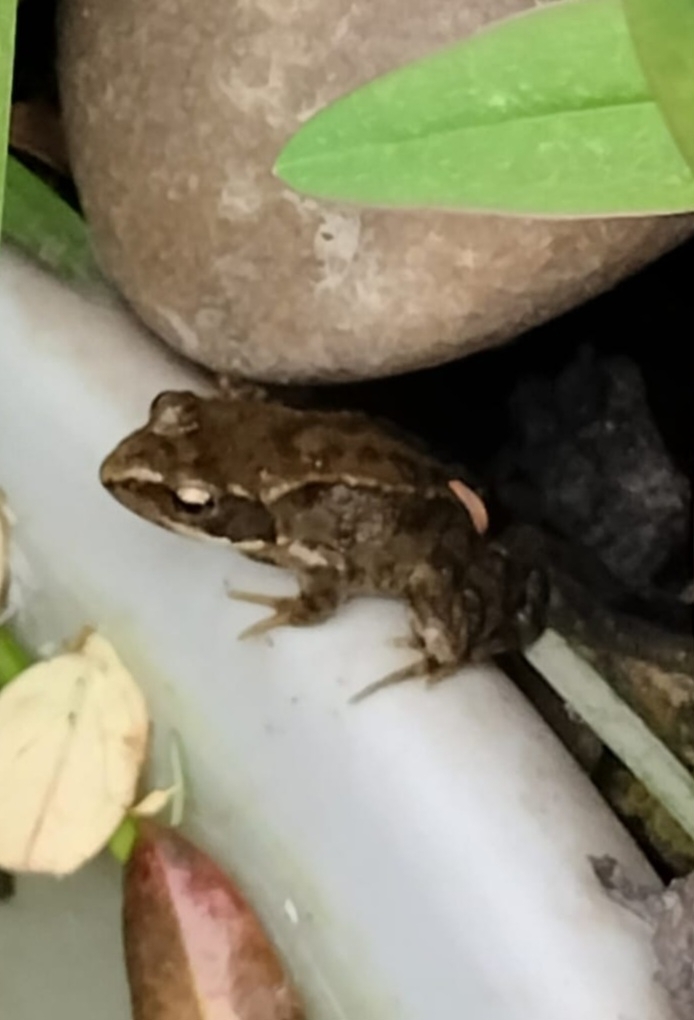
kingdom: Animalia
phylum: Chordata
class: Amphibia
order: Anura
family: Ranidae
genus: Rana
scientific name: Rana temporaria
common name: Common frog
